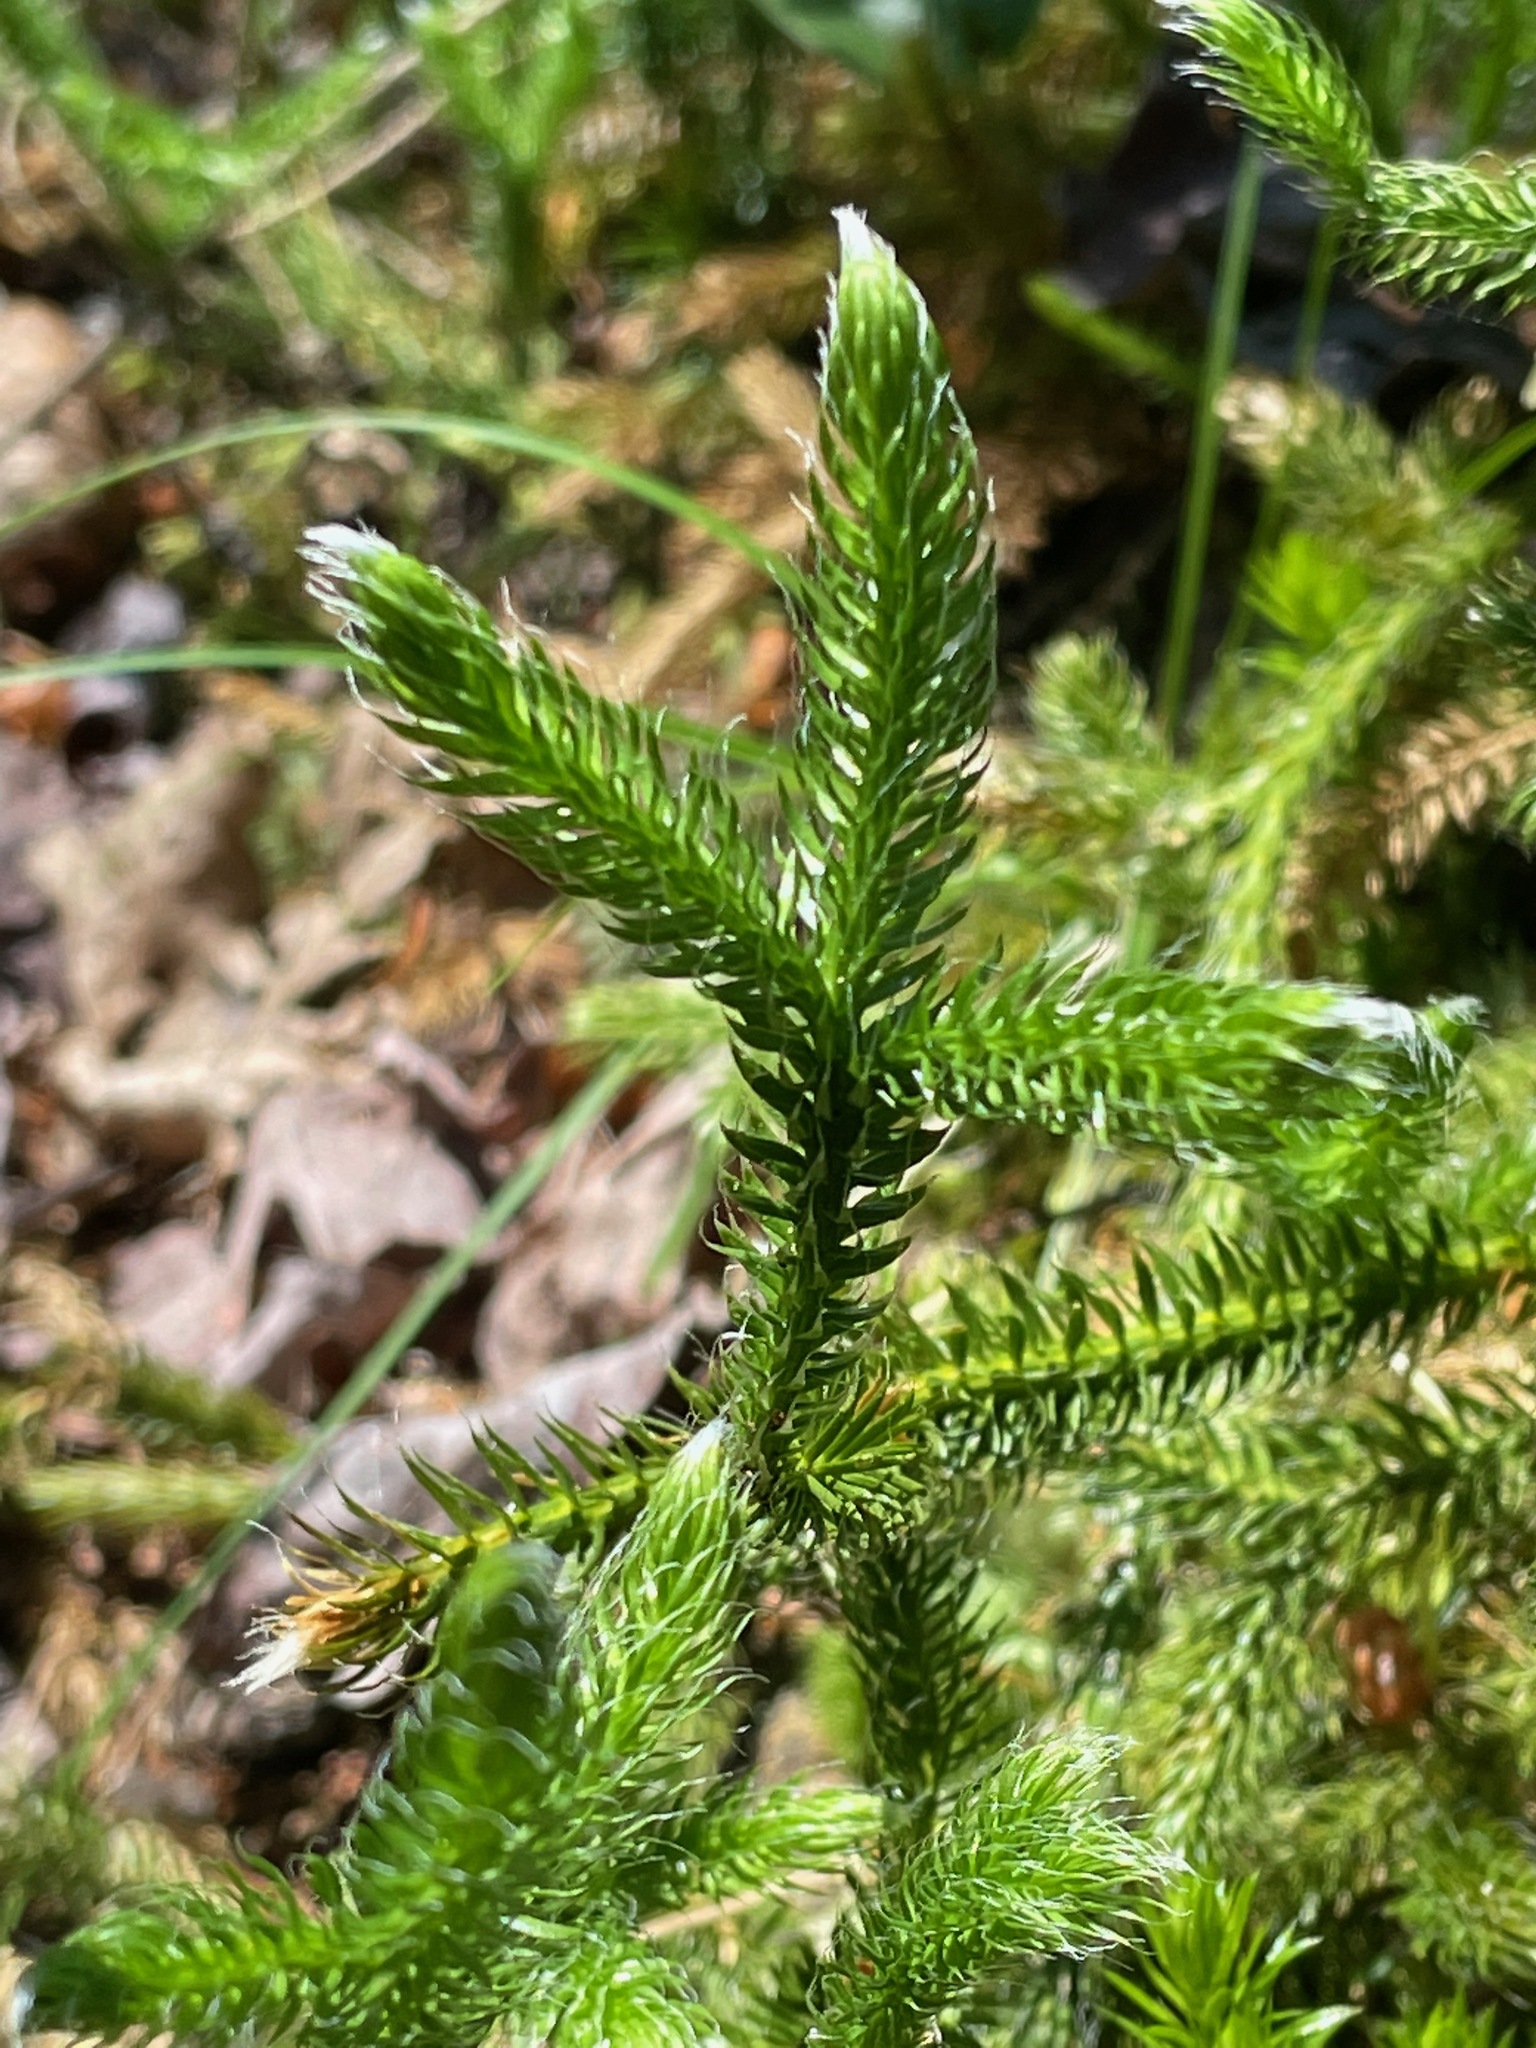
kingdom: Plantae
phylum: Tracheophyta
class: Lycopodiopsida
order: Lycopodiales
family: Lycopodiaceae
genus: Lycopodium
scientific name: Lycopodium clavatum
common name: Stag's-horn clubmoss
